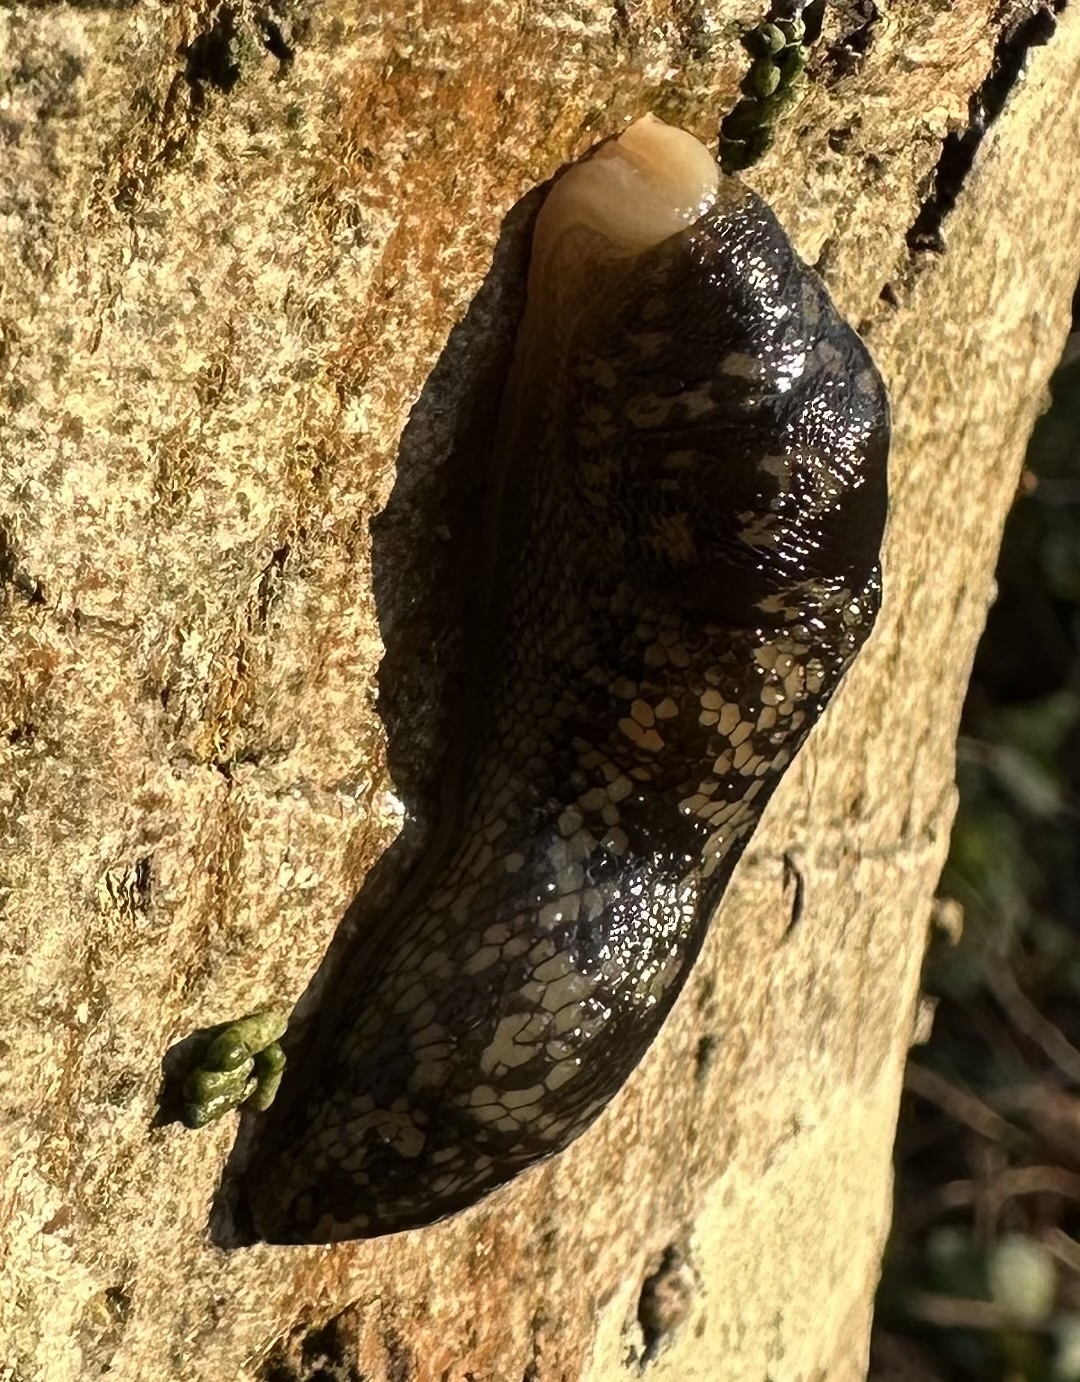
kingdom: Animalia
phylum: Mollusca
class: Gastropoda
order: Stylommatophora
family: Limacidae
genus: Limacus
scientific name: Limacus maculatus
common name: Irish yellow slug
